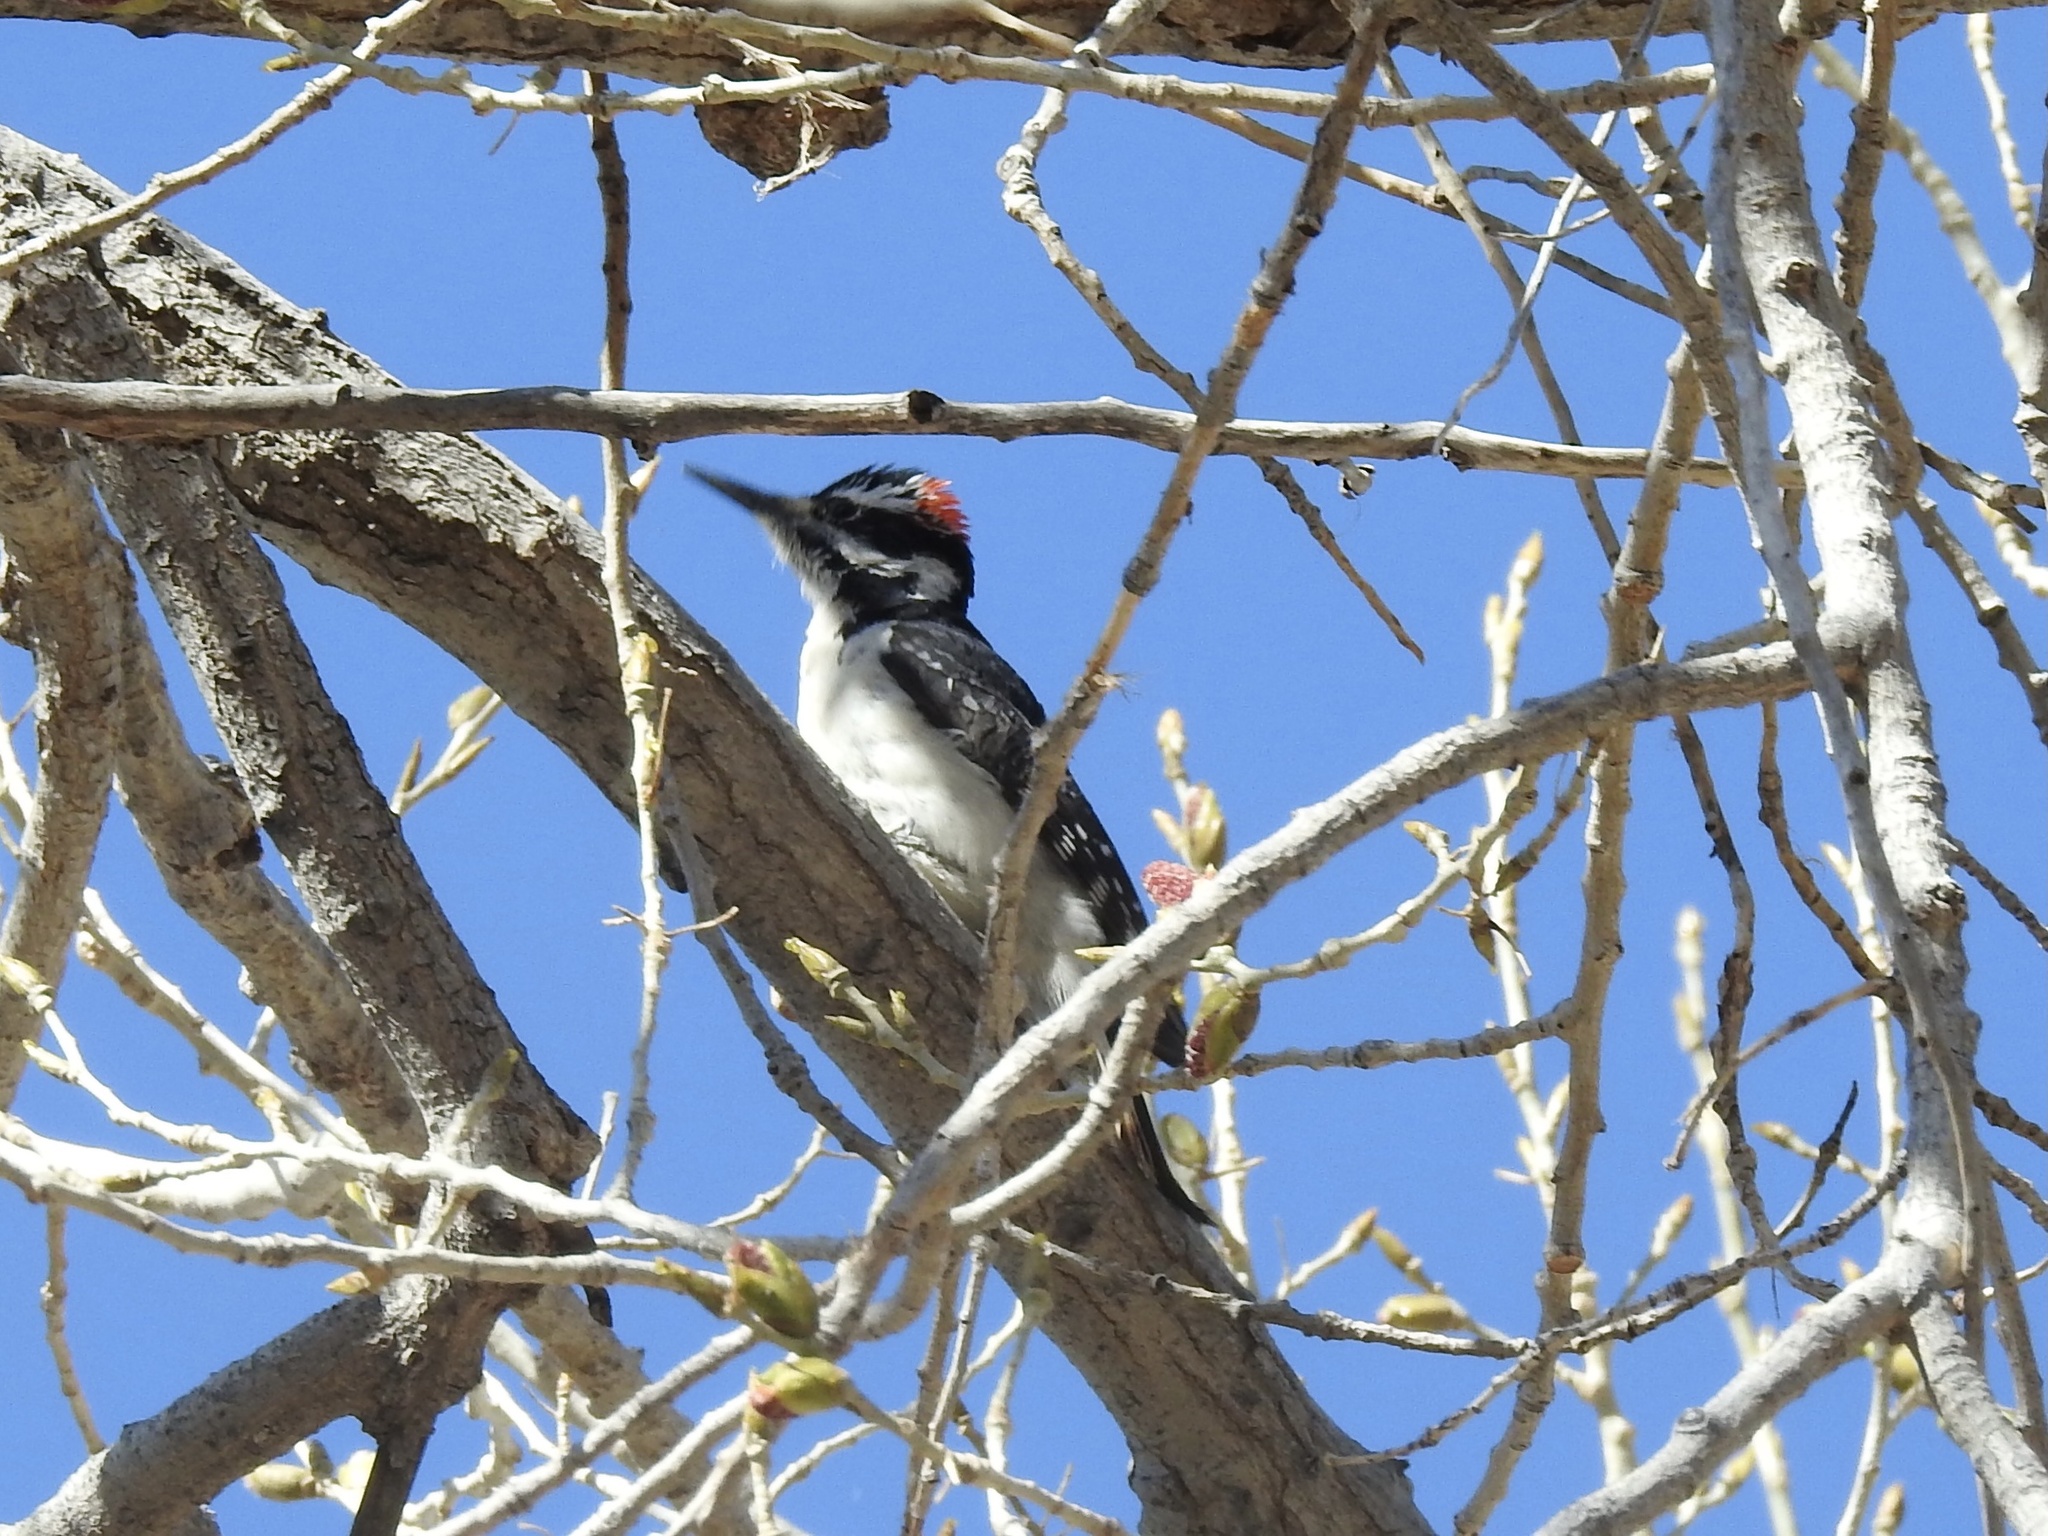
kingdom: Animalia
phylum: Chordata
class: Aves
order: Piciformes
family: Picidae
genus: Leuconotopicus
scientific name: Leuconotopicus villosus
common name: Hairy woodpecker
